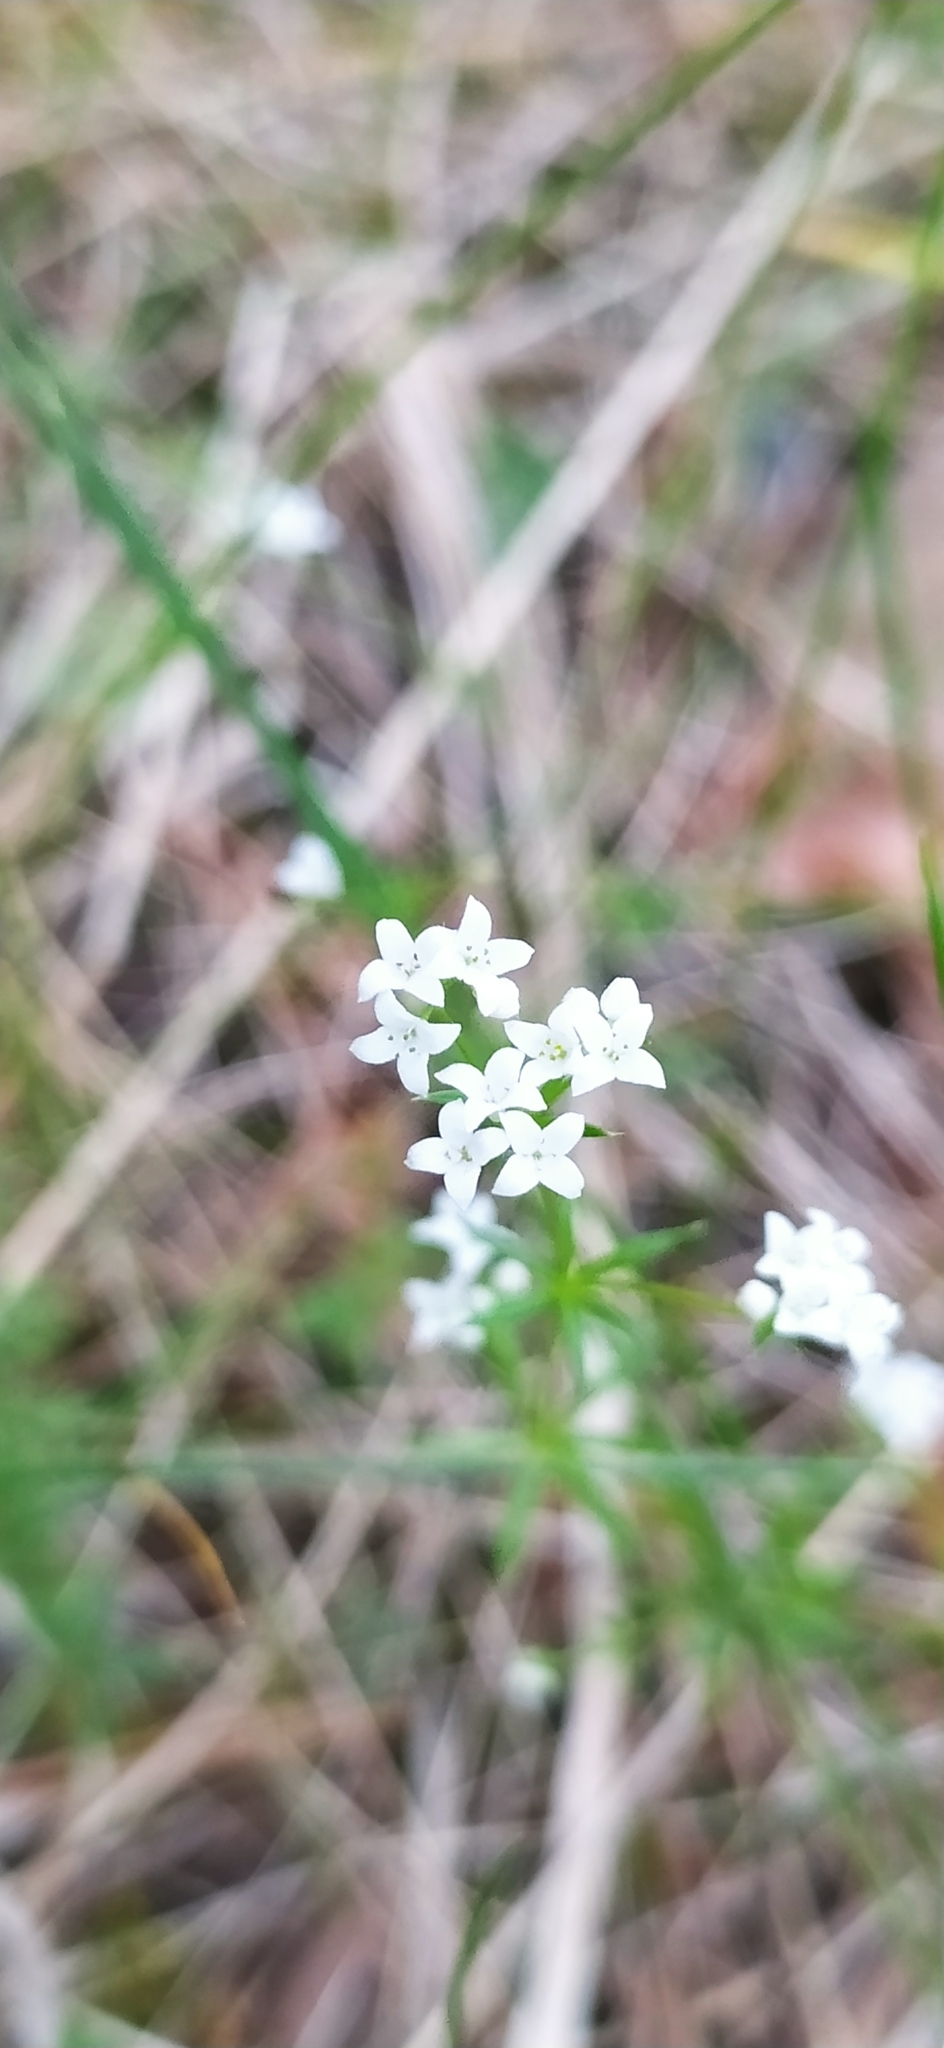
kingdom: Plantae
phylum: Tracheophyta
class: Magnoliopsida
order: Gentianales
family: Rubiaceae
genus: Galium
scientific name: Galium uliginosum
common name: Fen bedstraw
